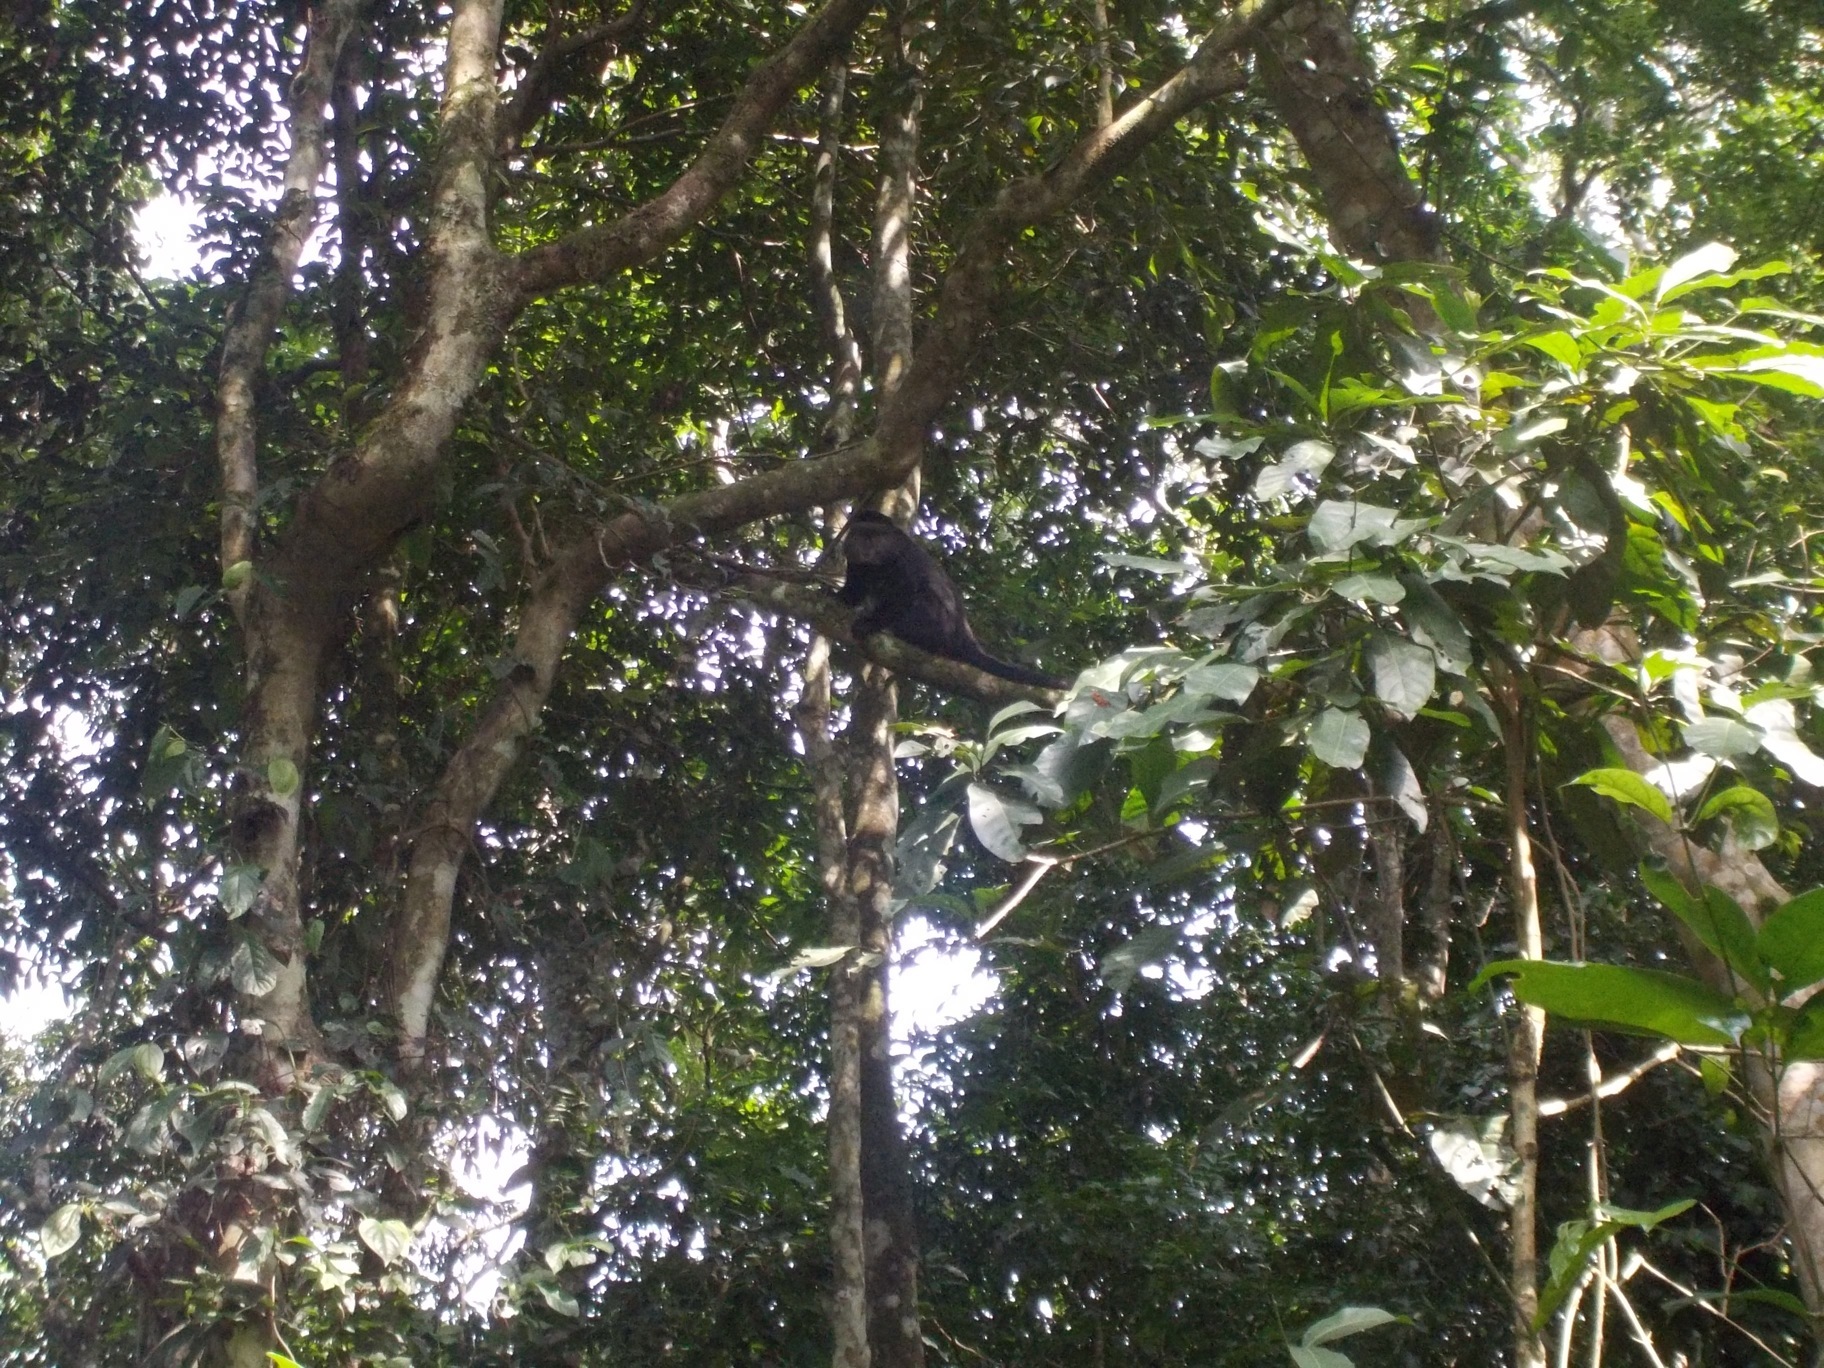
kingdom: Animalia
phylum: Chordata
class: Mammalia
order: Primates
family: Cercopithecidae
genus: Cercopithecus
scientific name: Cercopithecus mitis
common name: Blue monkey
